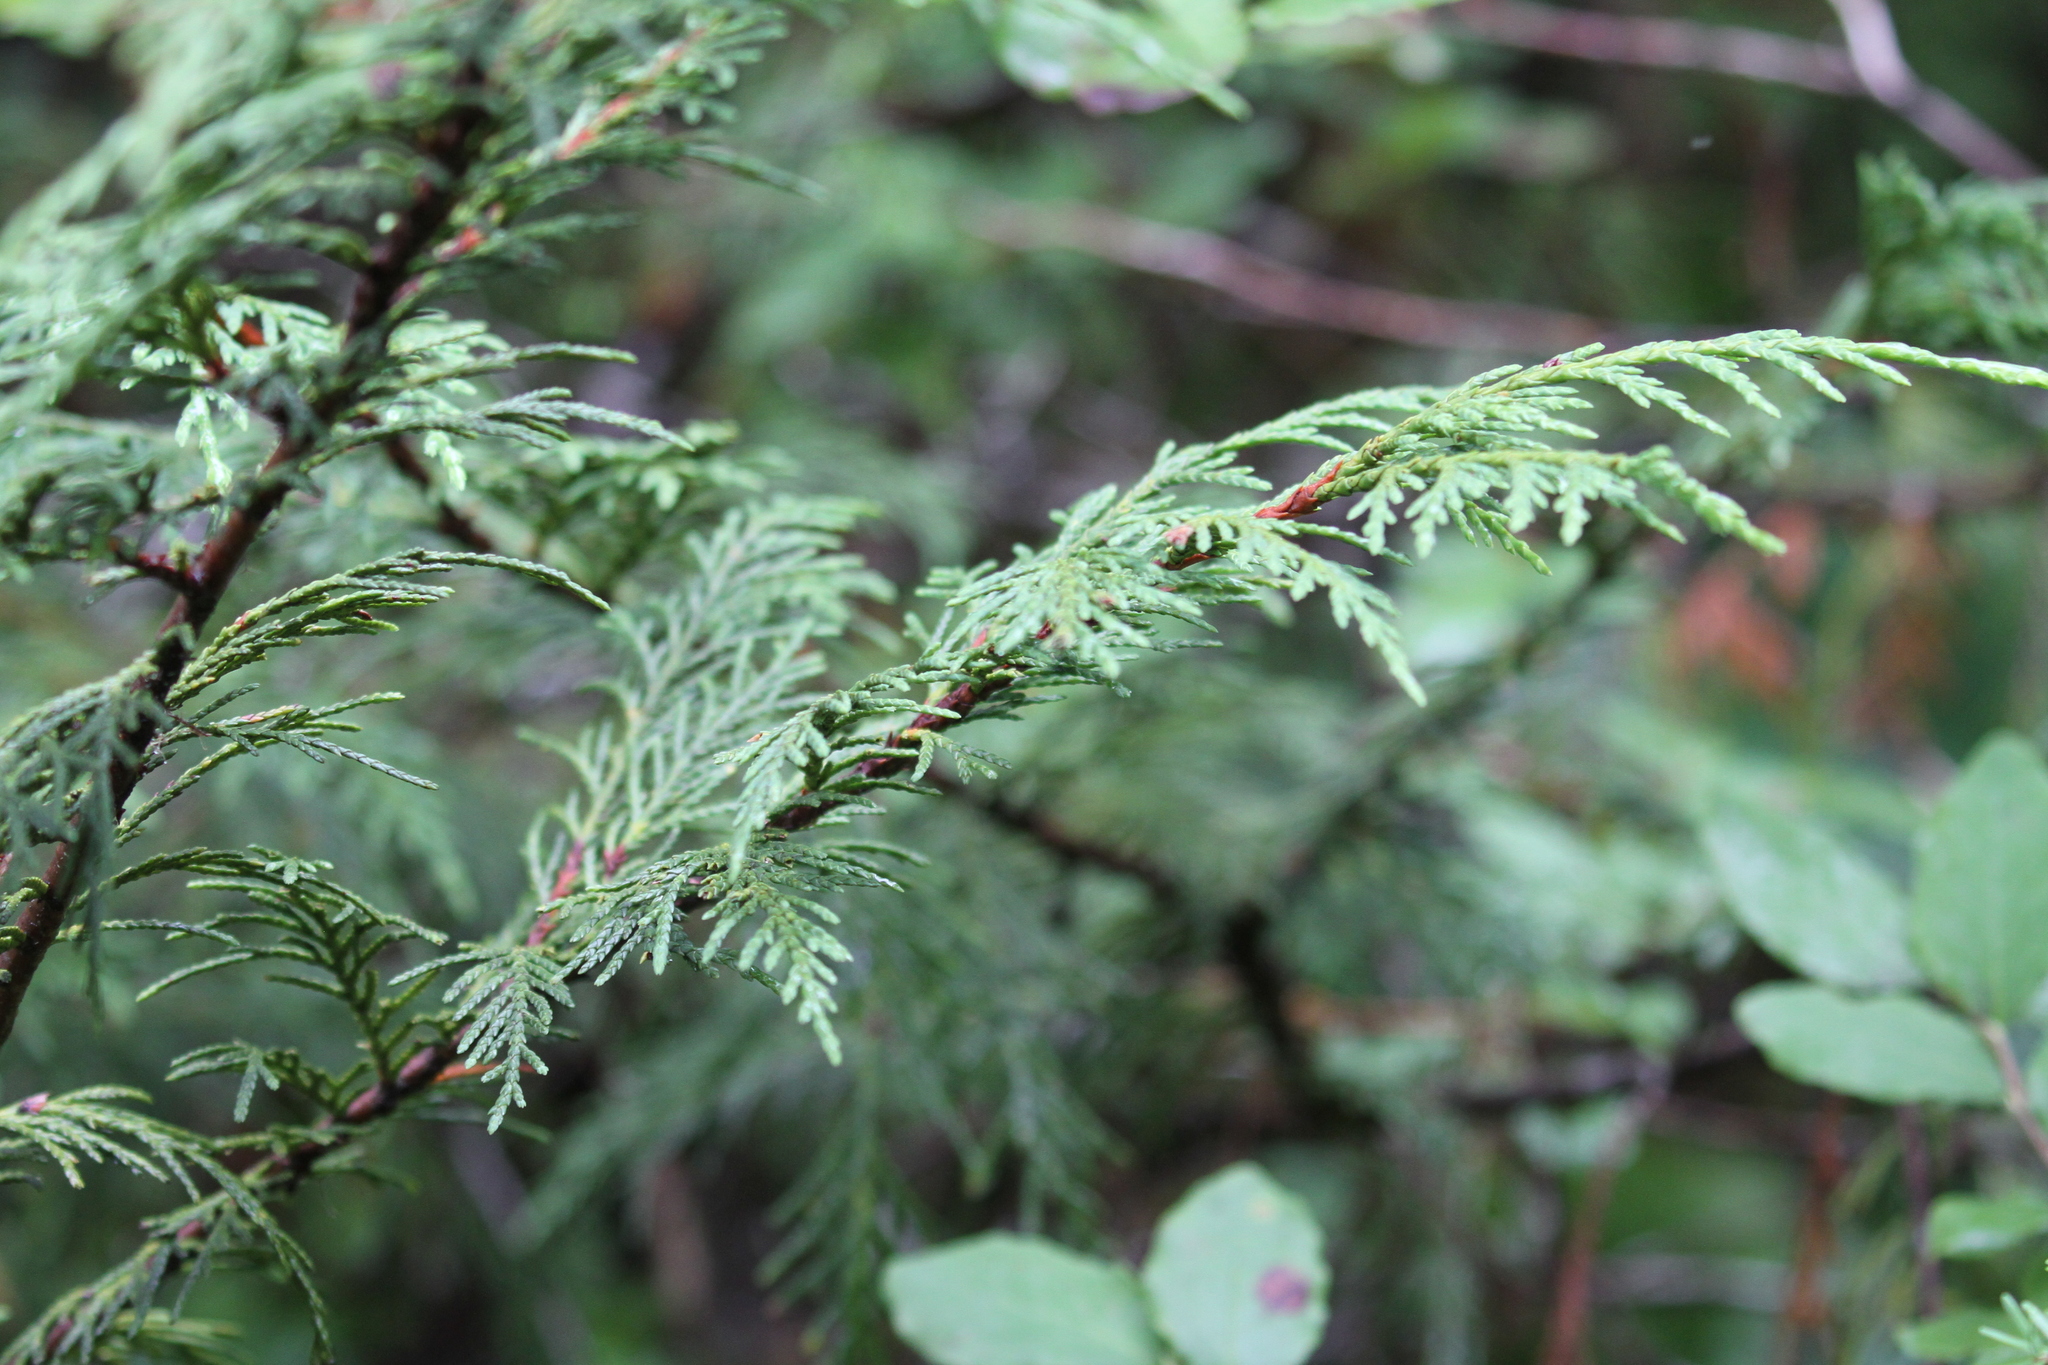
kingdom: Plantae
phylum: Tracheophyta
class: Pinopsida
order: Pinales
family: Cupressaceae
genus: Xanthocyparis
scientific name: Xanthocyparis nootkatensis
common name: Nootka cypress
